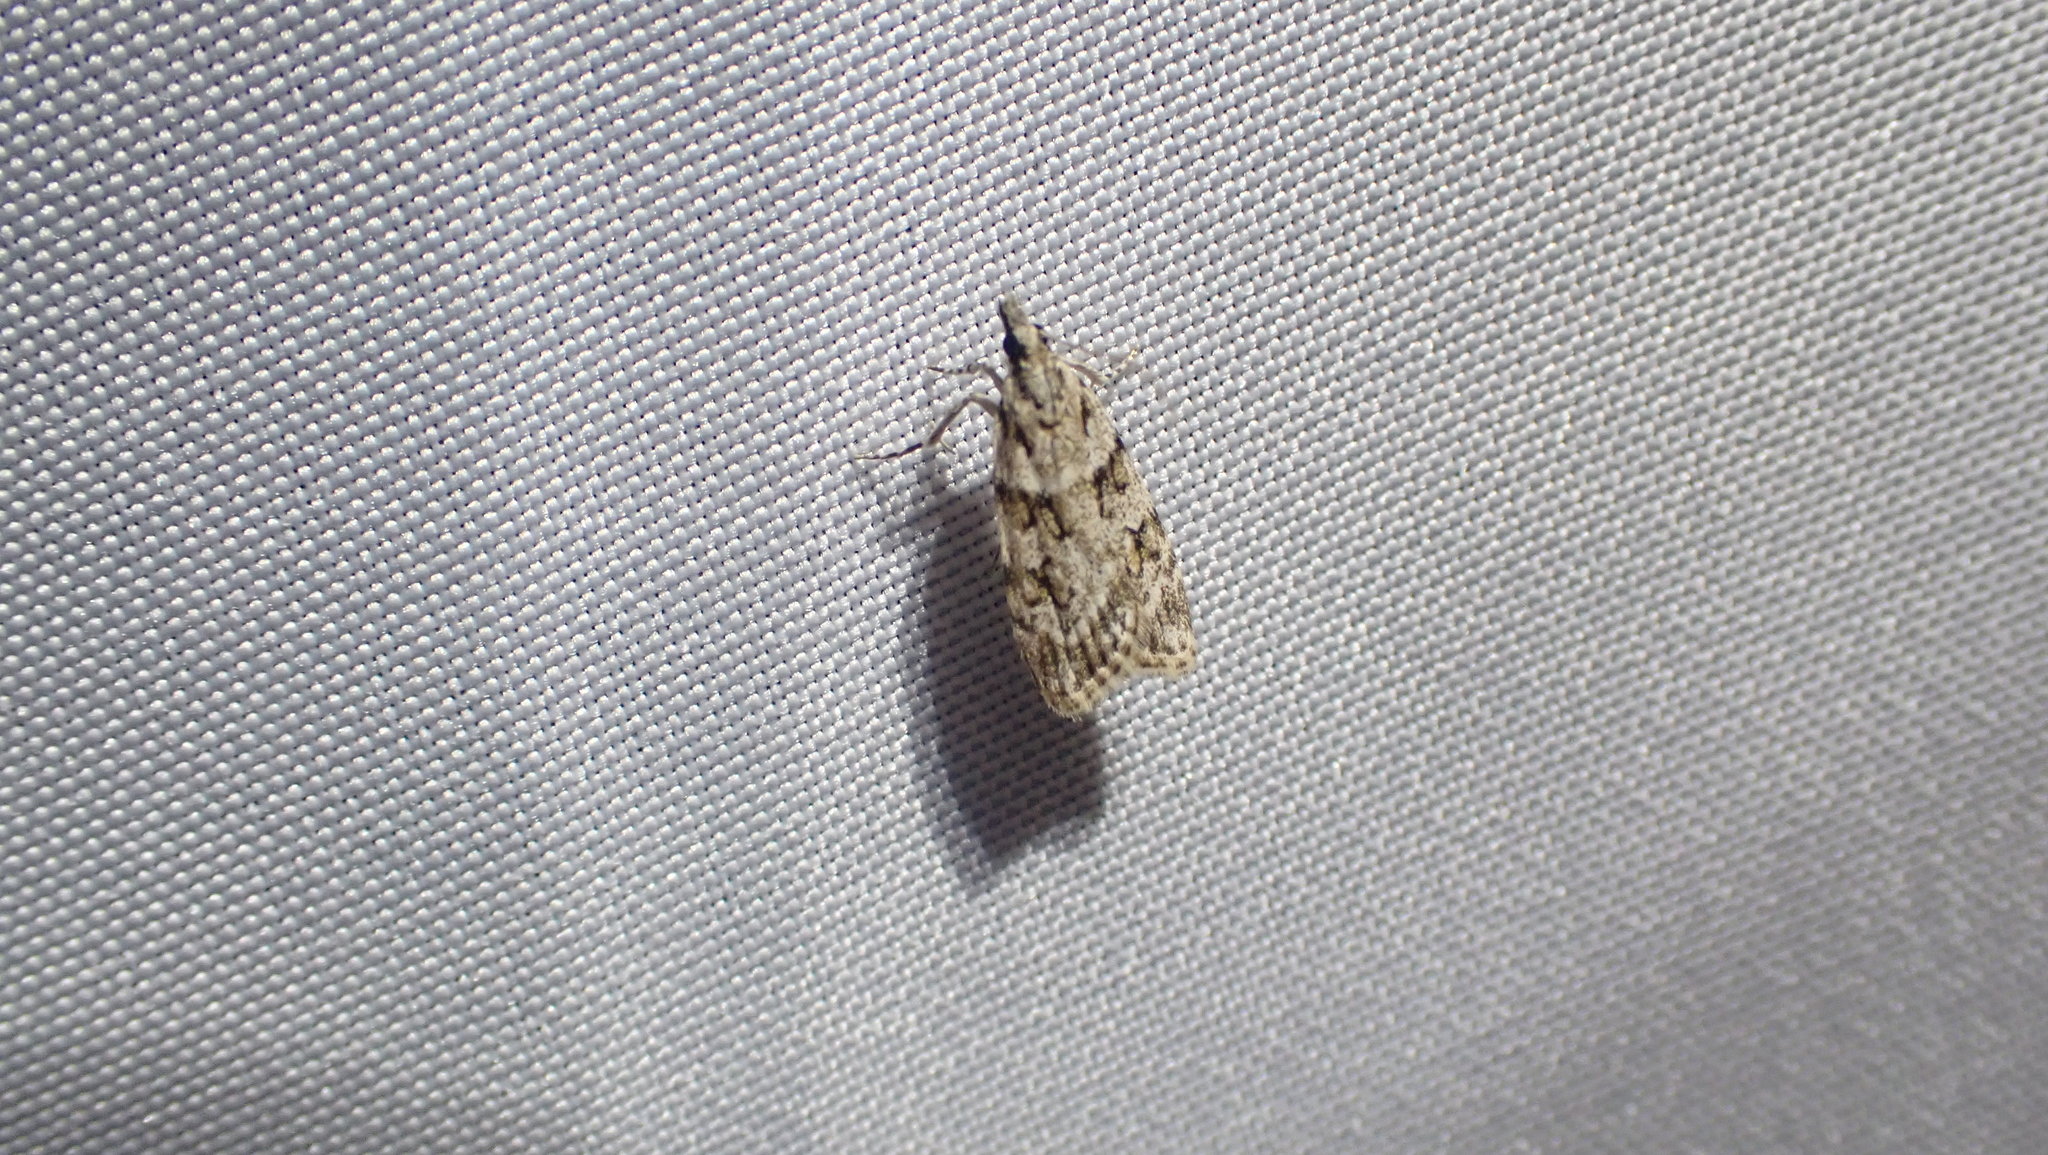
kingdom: Animalia
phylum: Arthropoda
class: Insecta
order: Lepidoptera
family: Crambidae
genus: Scoparia
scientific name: Scoparia biplagialis
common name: Double-striped scoparia moth
